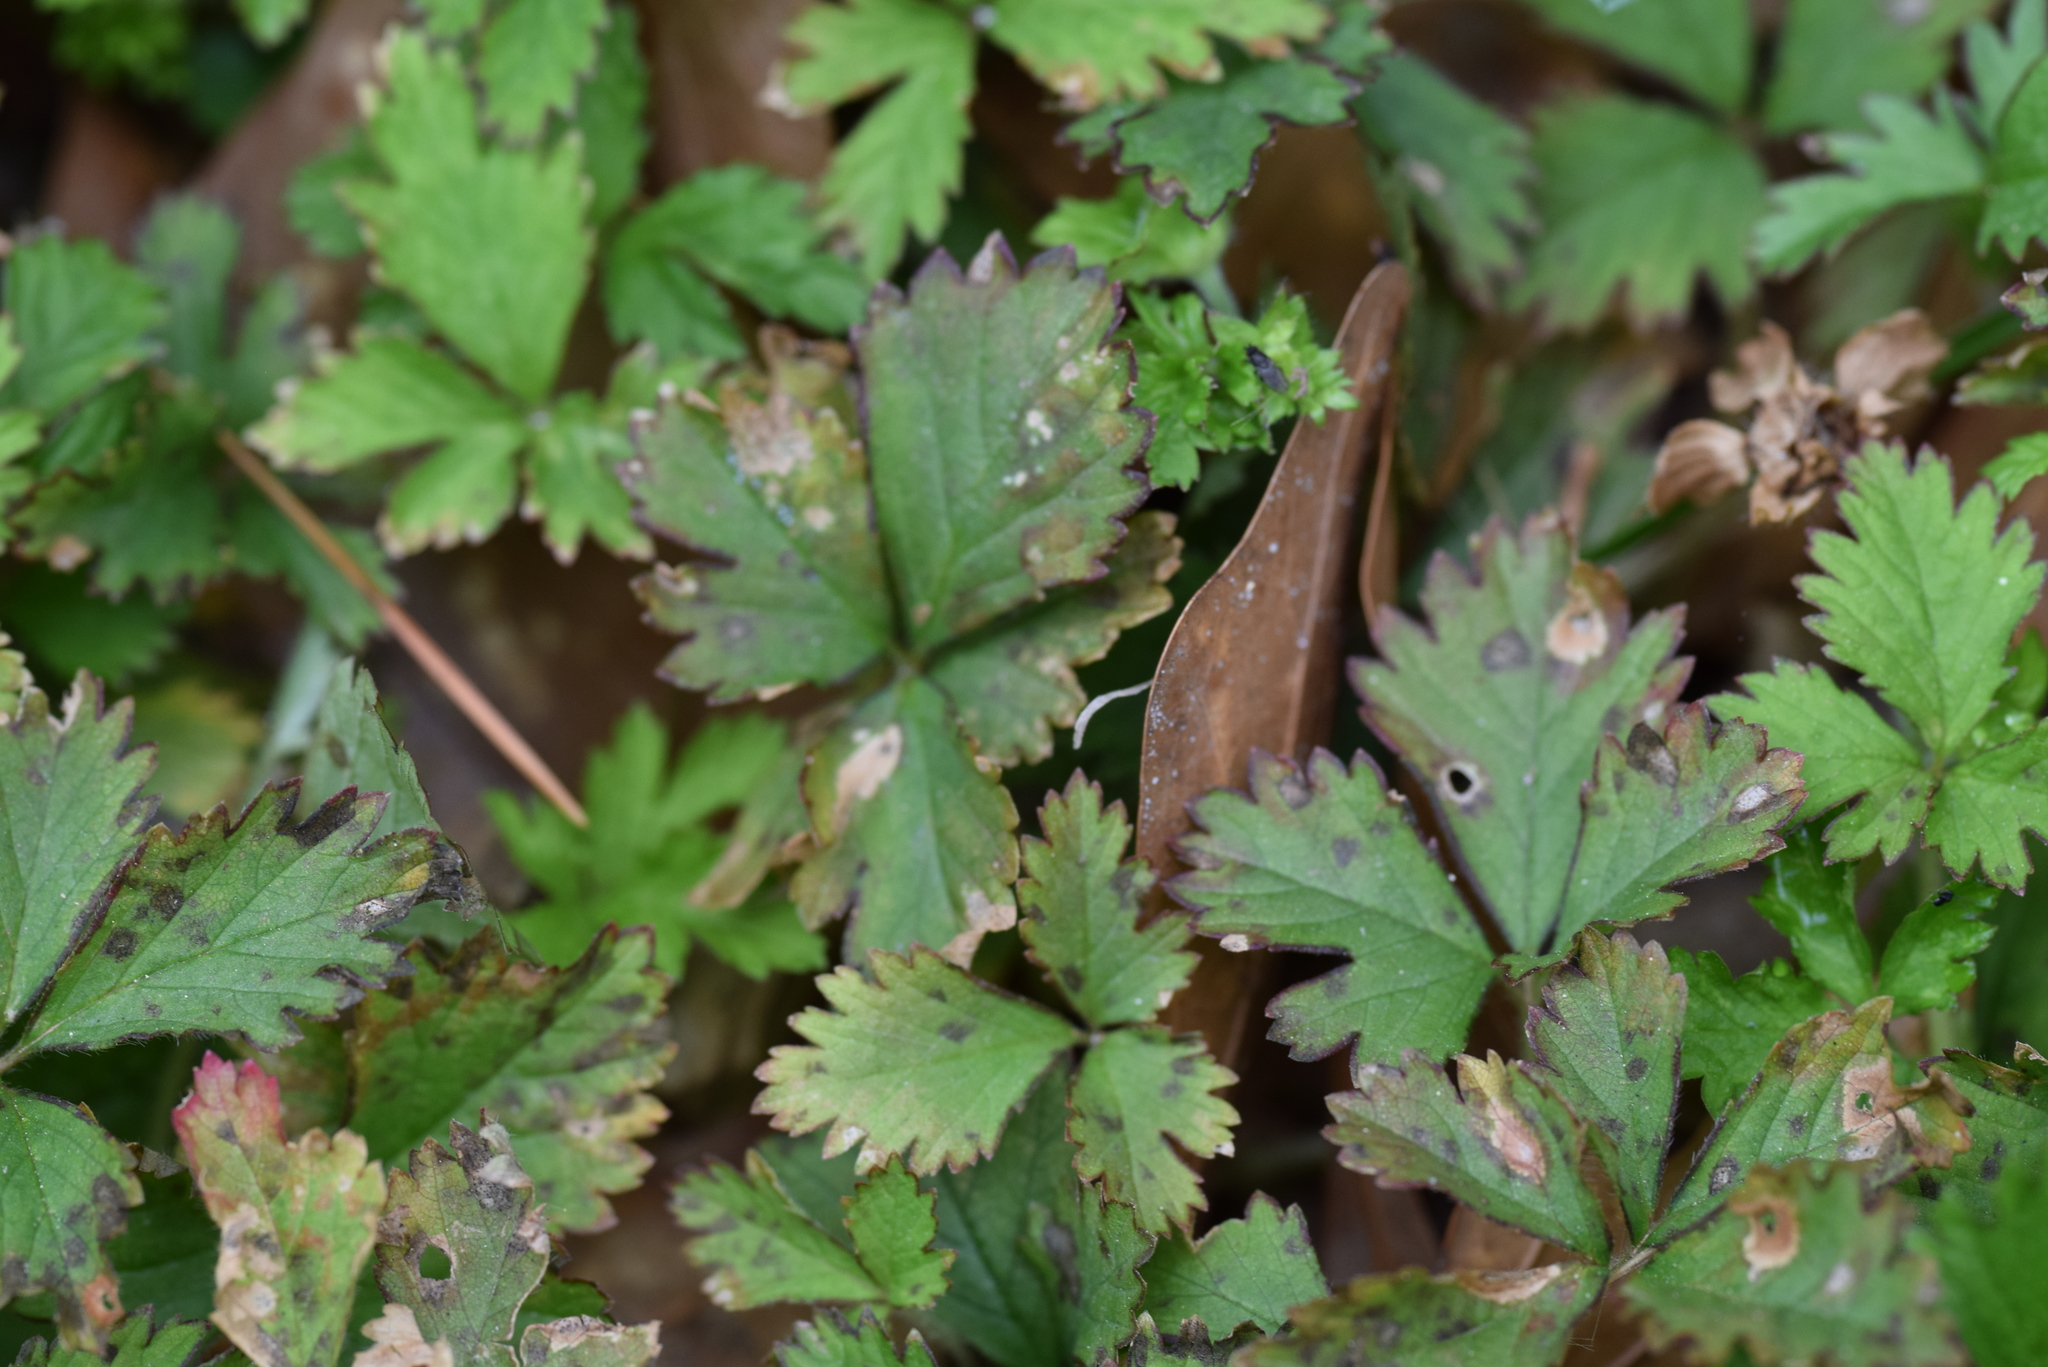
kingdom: Plantae
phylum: Tracheophyta
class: Magnoliopsida
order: Rosales
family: Rosaceae
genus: Potentilla
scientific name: Potentilla indica
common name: Yellow-flowered strawberry
